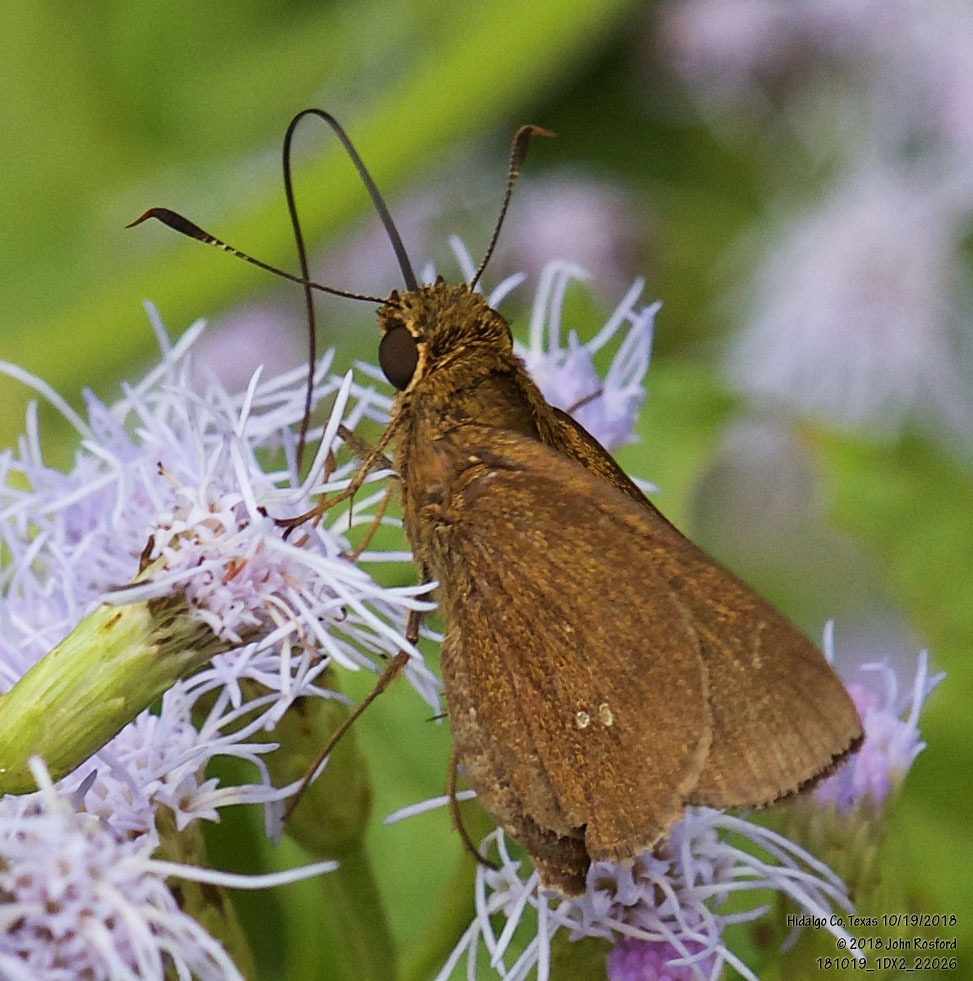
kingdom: Animalia
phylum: Arthropoda
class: Insecta
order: Lepidoptera
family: Hesperiidae
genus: Decinea
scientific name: Decinea percosius
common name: Double-dotted skipper
